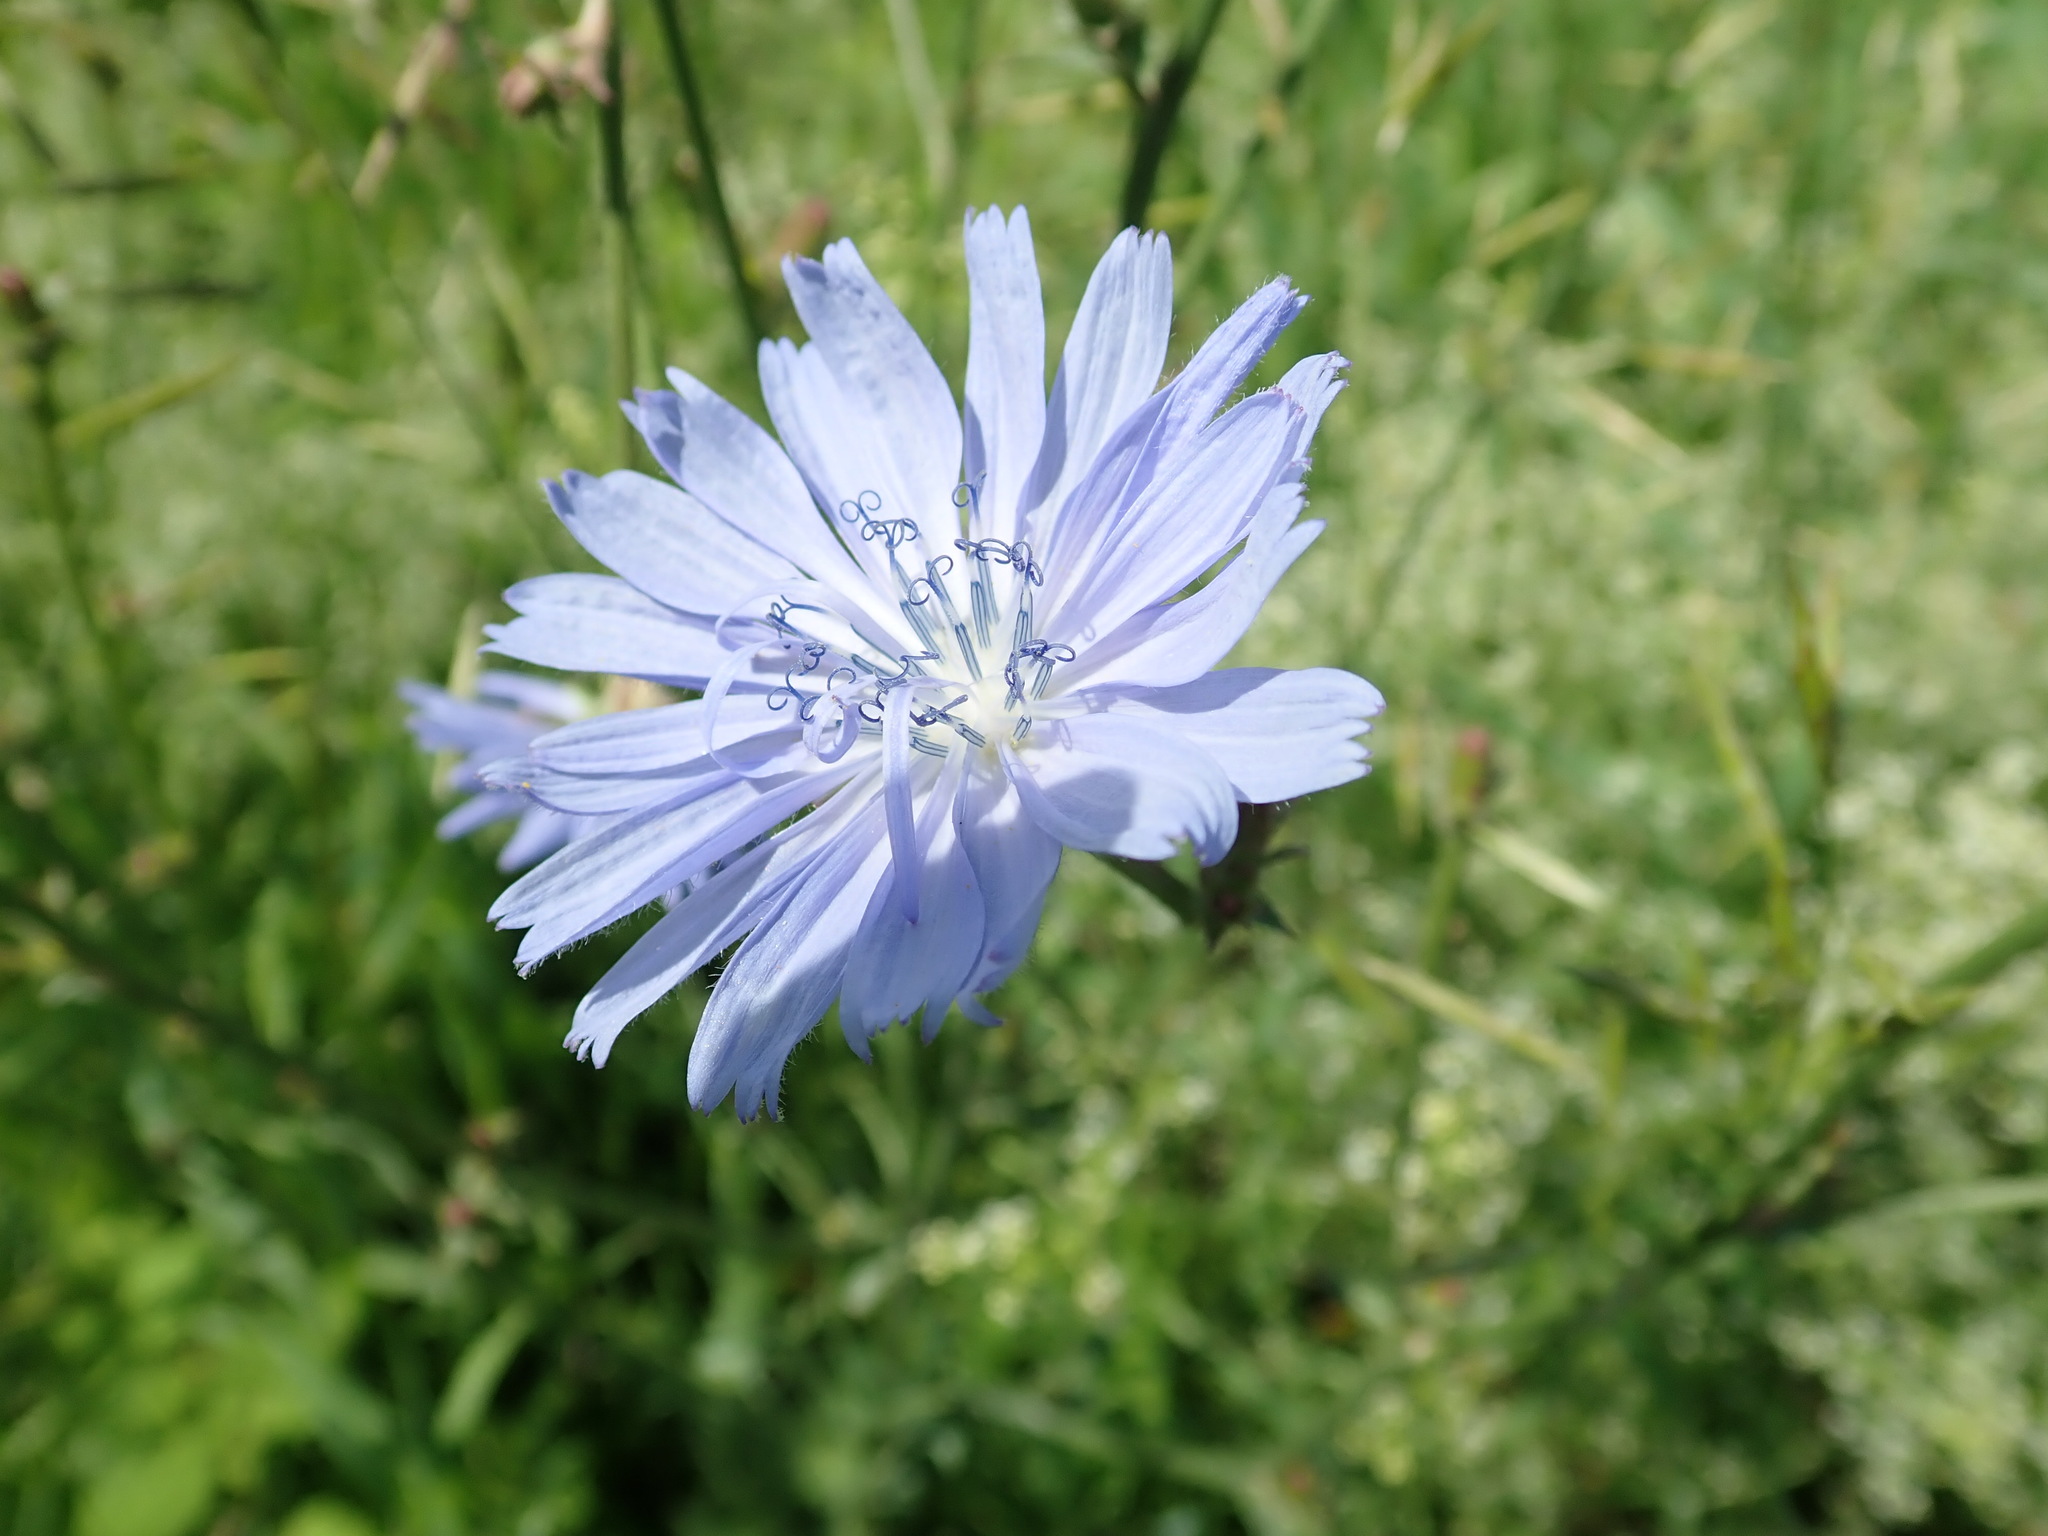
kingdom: Plantae
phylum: Tracheophyta
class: Magnoliopsida
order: Asterales
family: Asteraceae
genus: Cichorium
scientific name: Cichorium intybus
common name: Chicory
